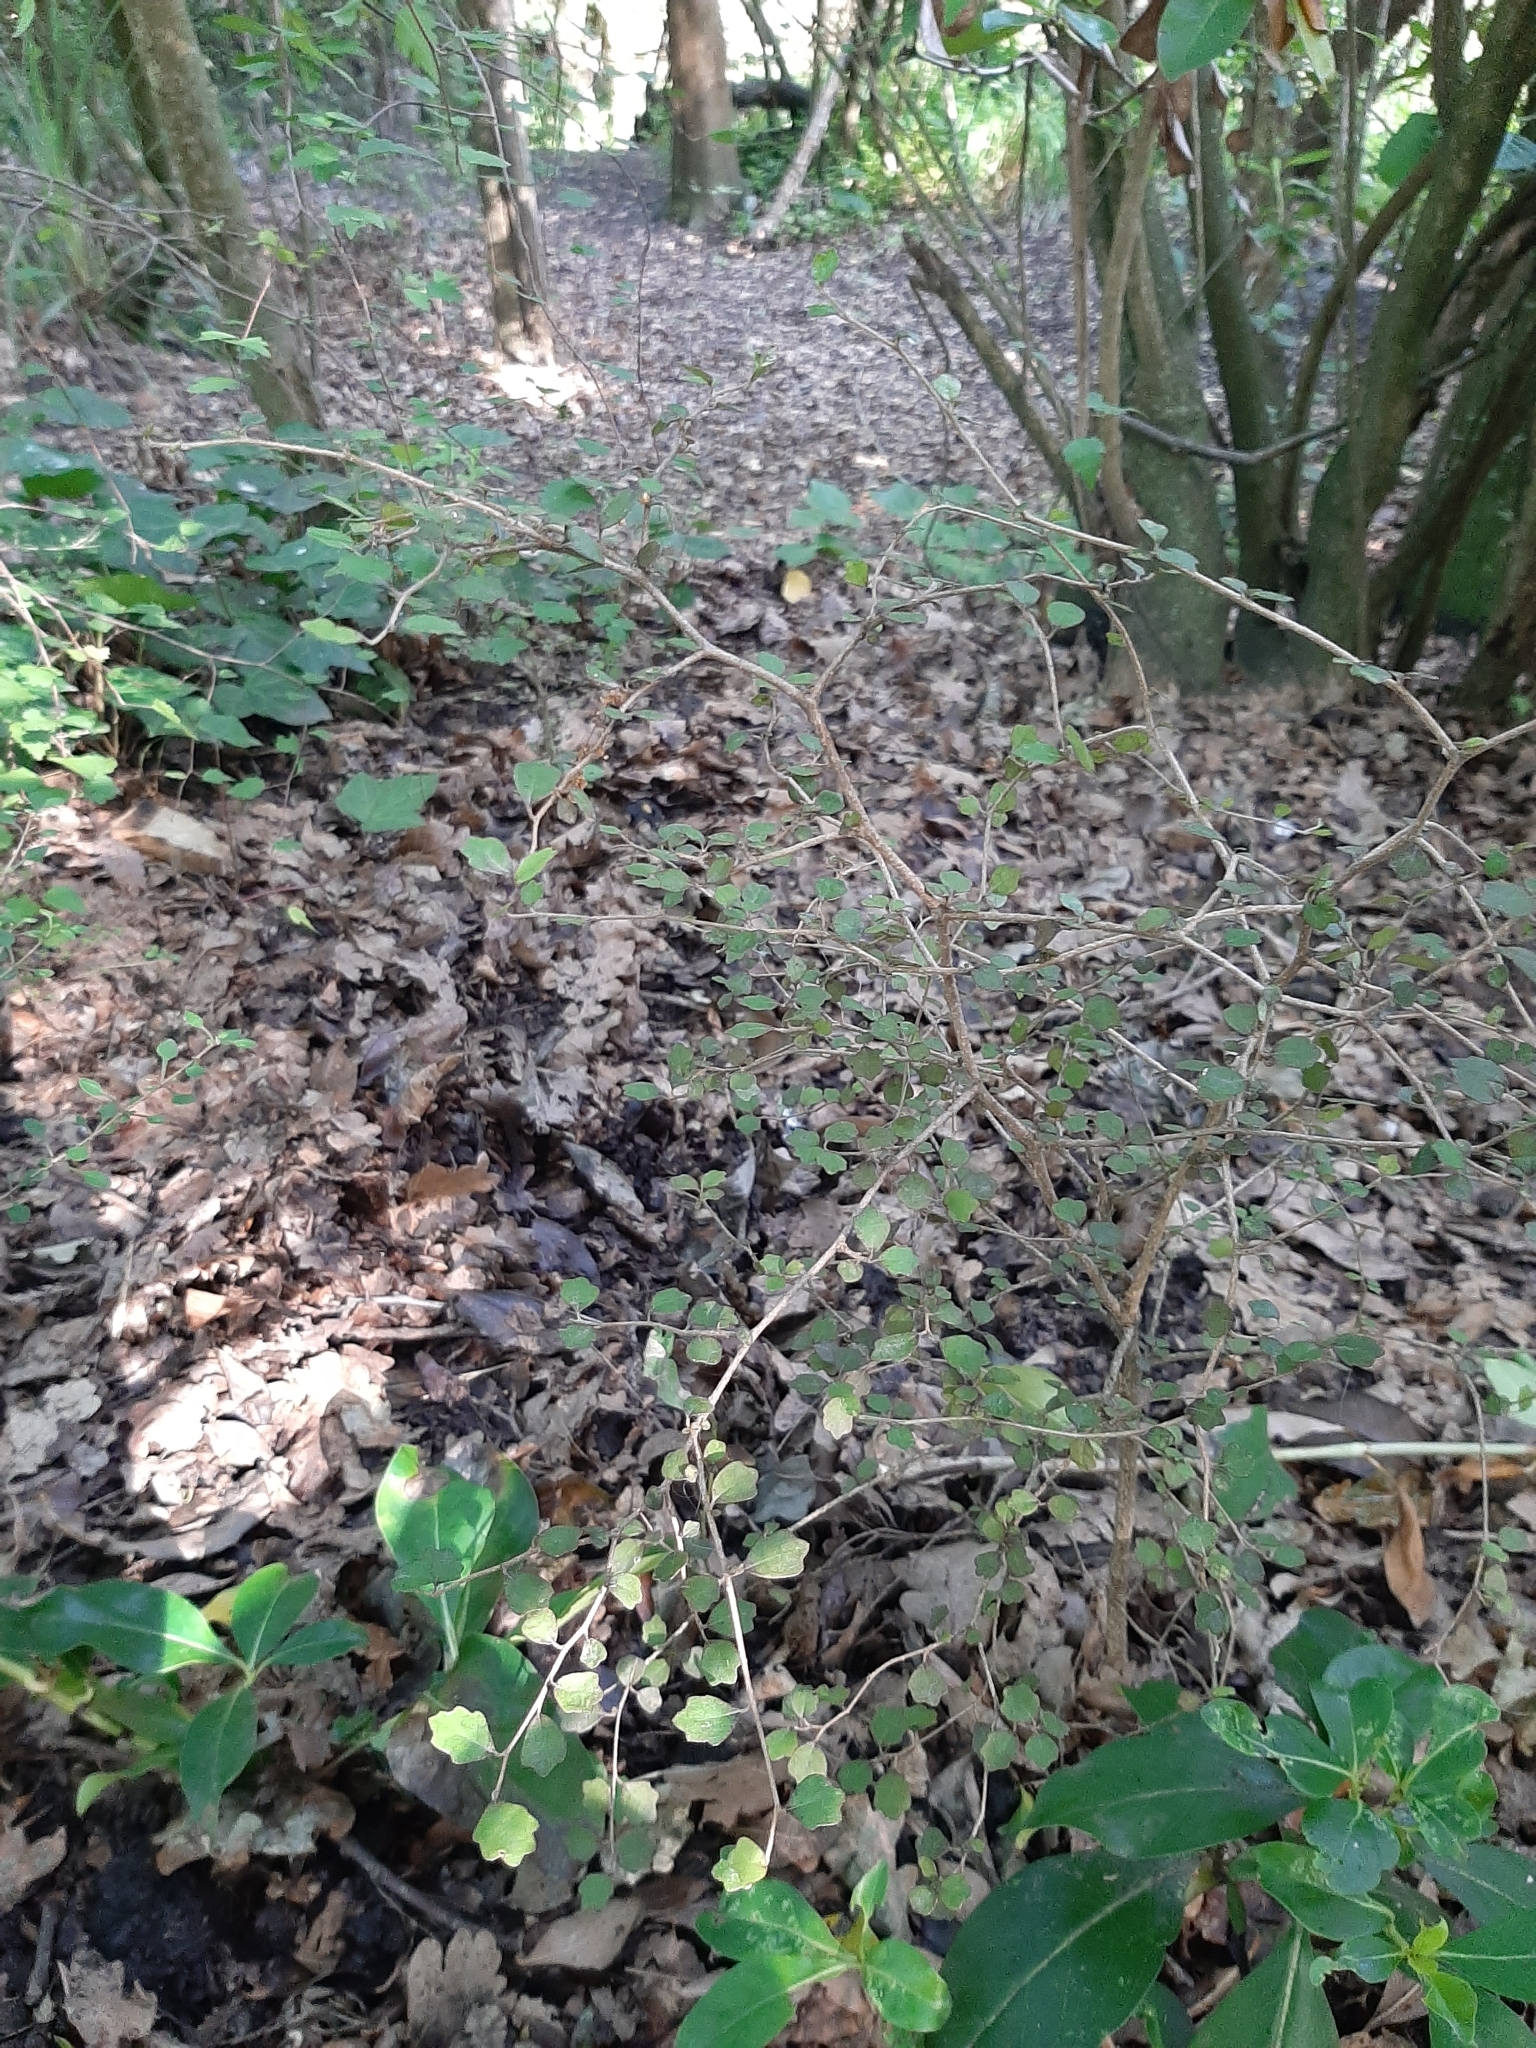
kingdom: Plantae
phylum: Tracheophyta
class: Magnoliopsida
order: Apiales
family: Pennantiaceae
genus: Pennantia
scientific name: Pennantia corymbosa
